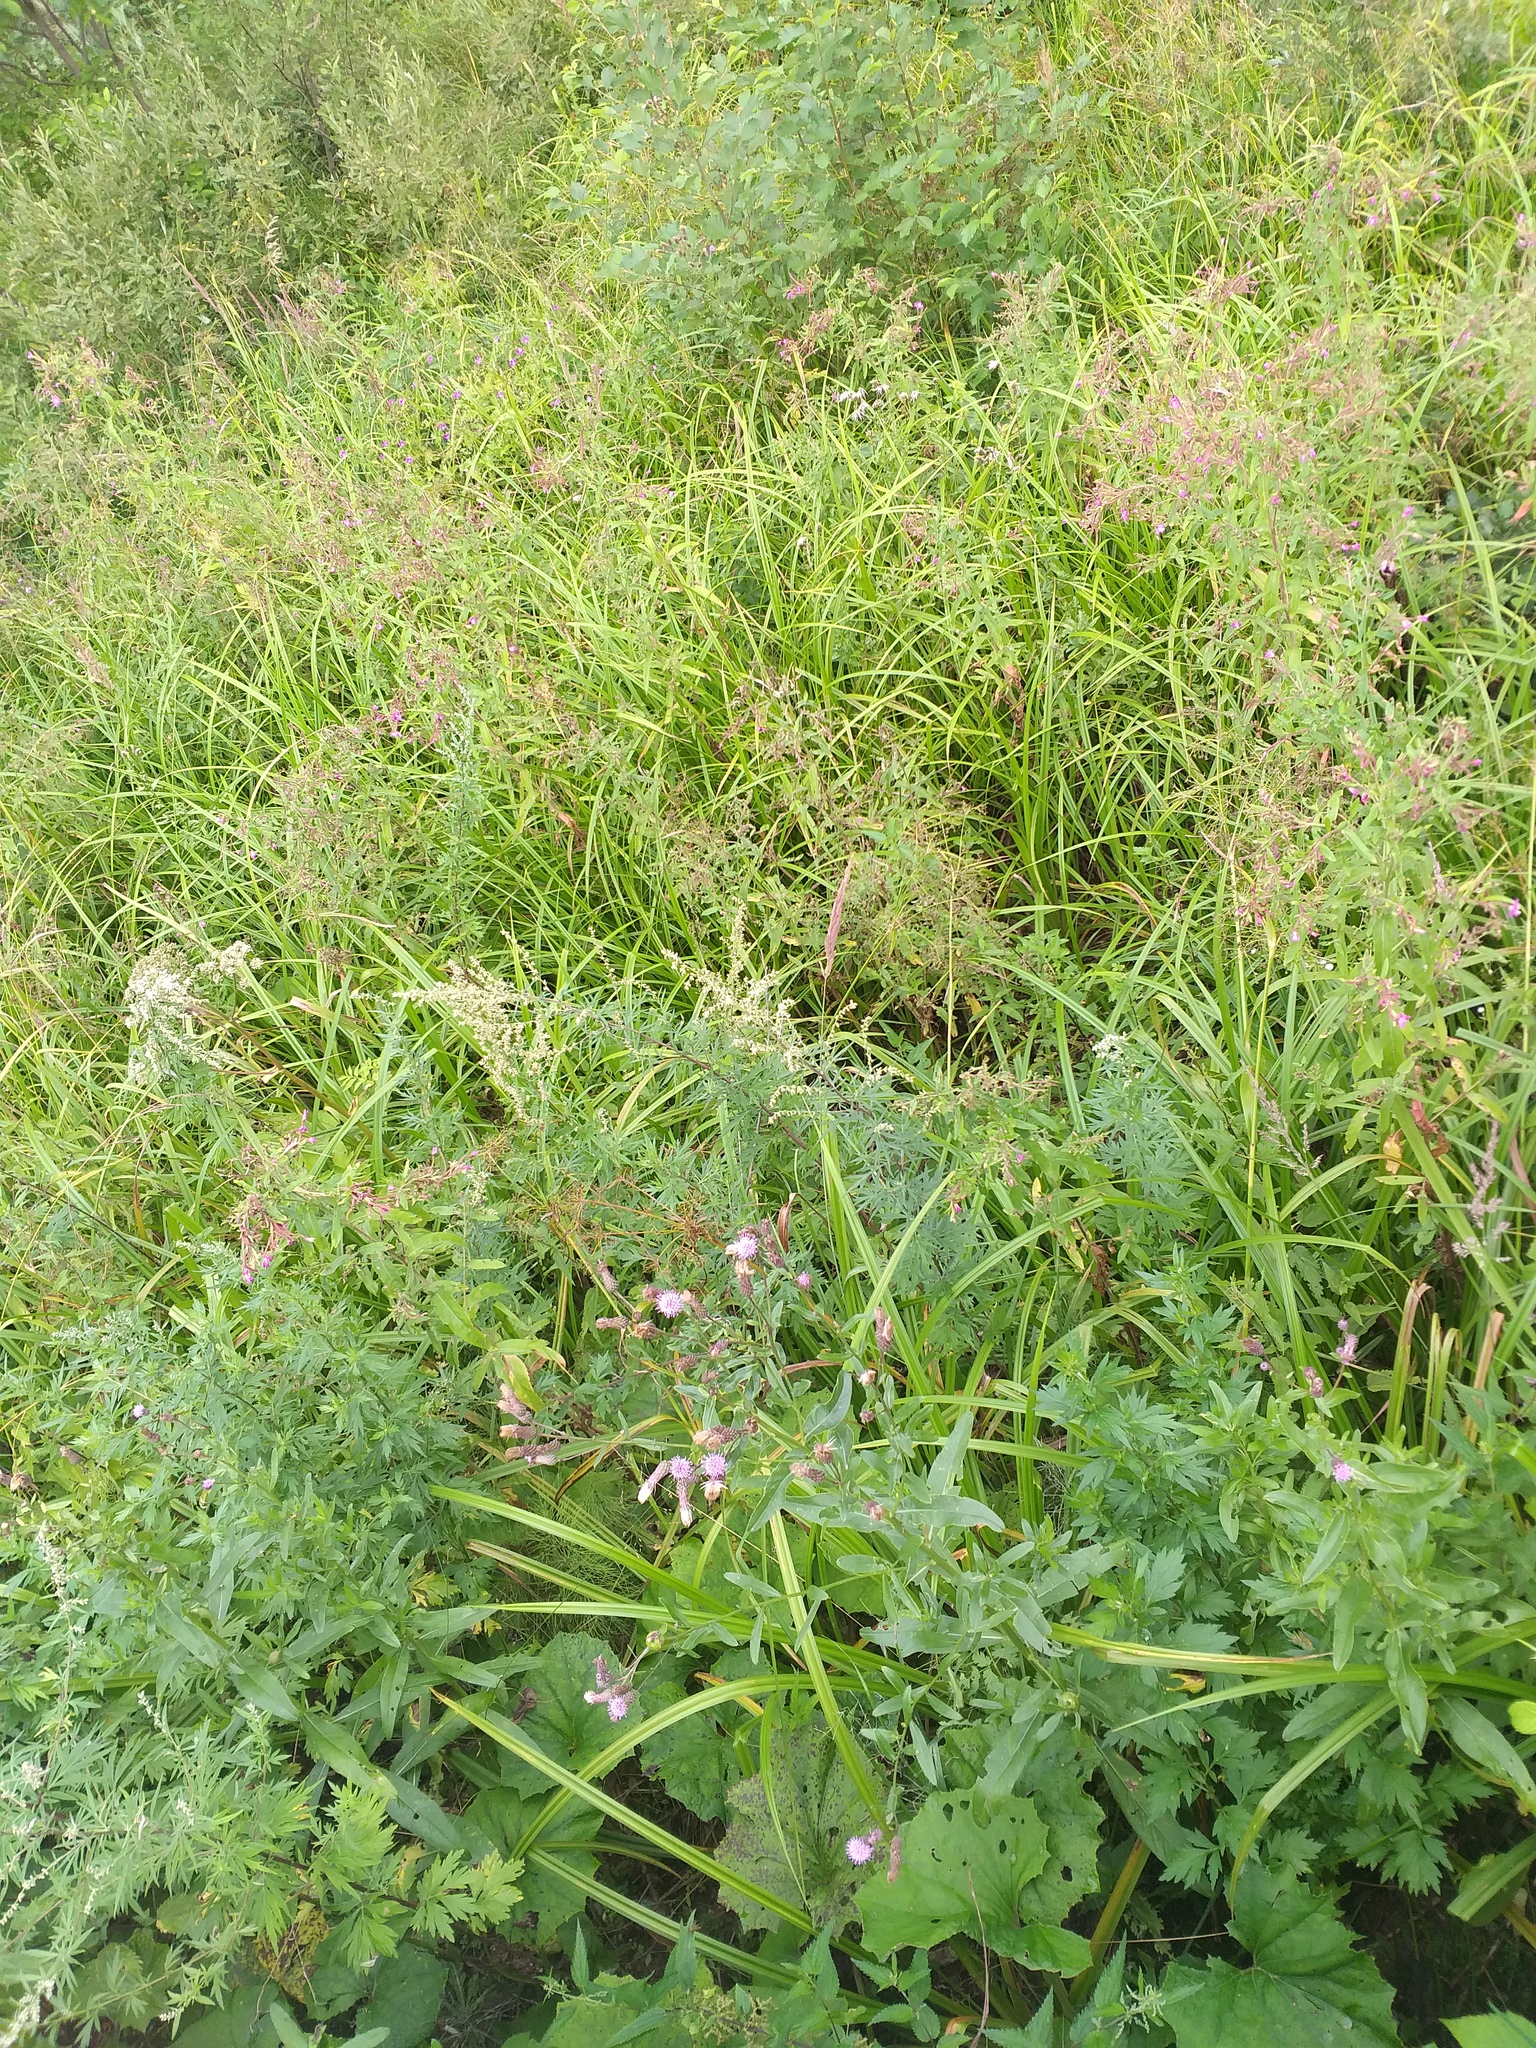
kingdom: Plantae
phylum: Tracheophyta
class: Magnoliopsida
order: Asterales
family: Asteraceae
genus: Cirsium
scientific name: Cirsium arvense
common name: Creeping thistle
